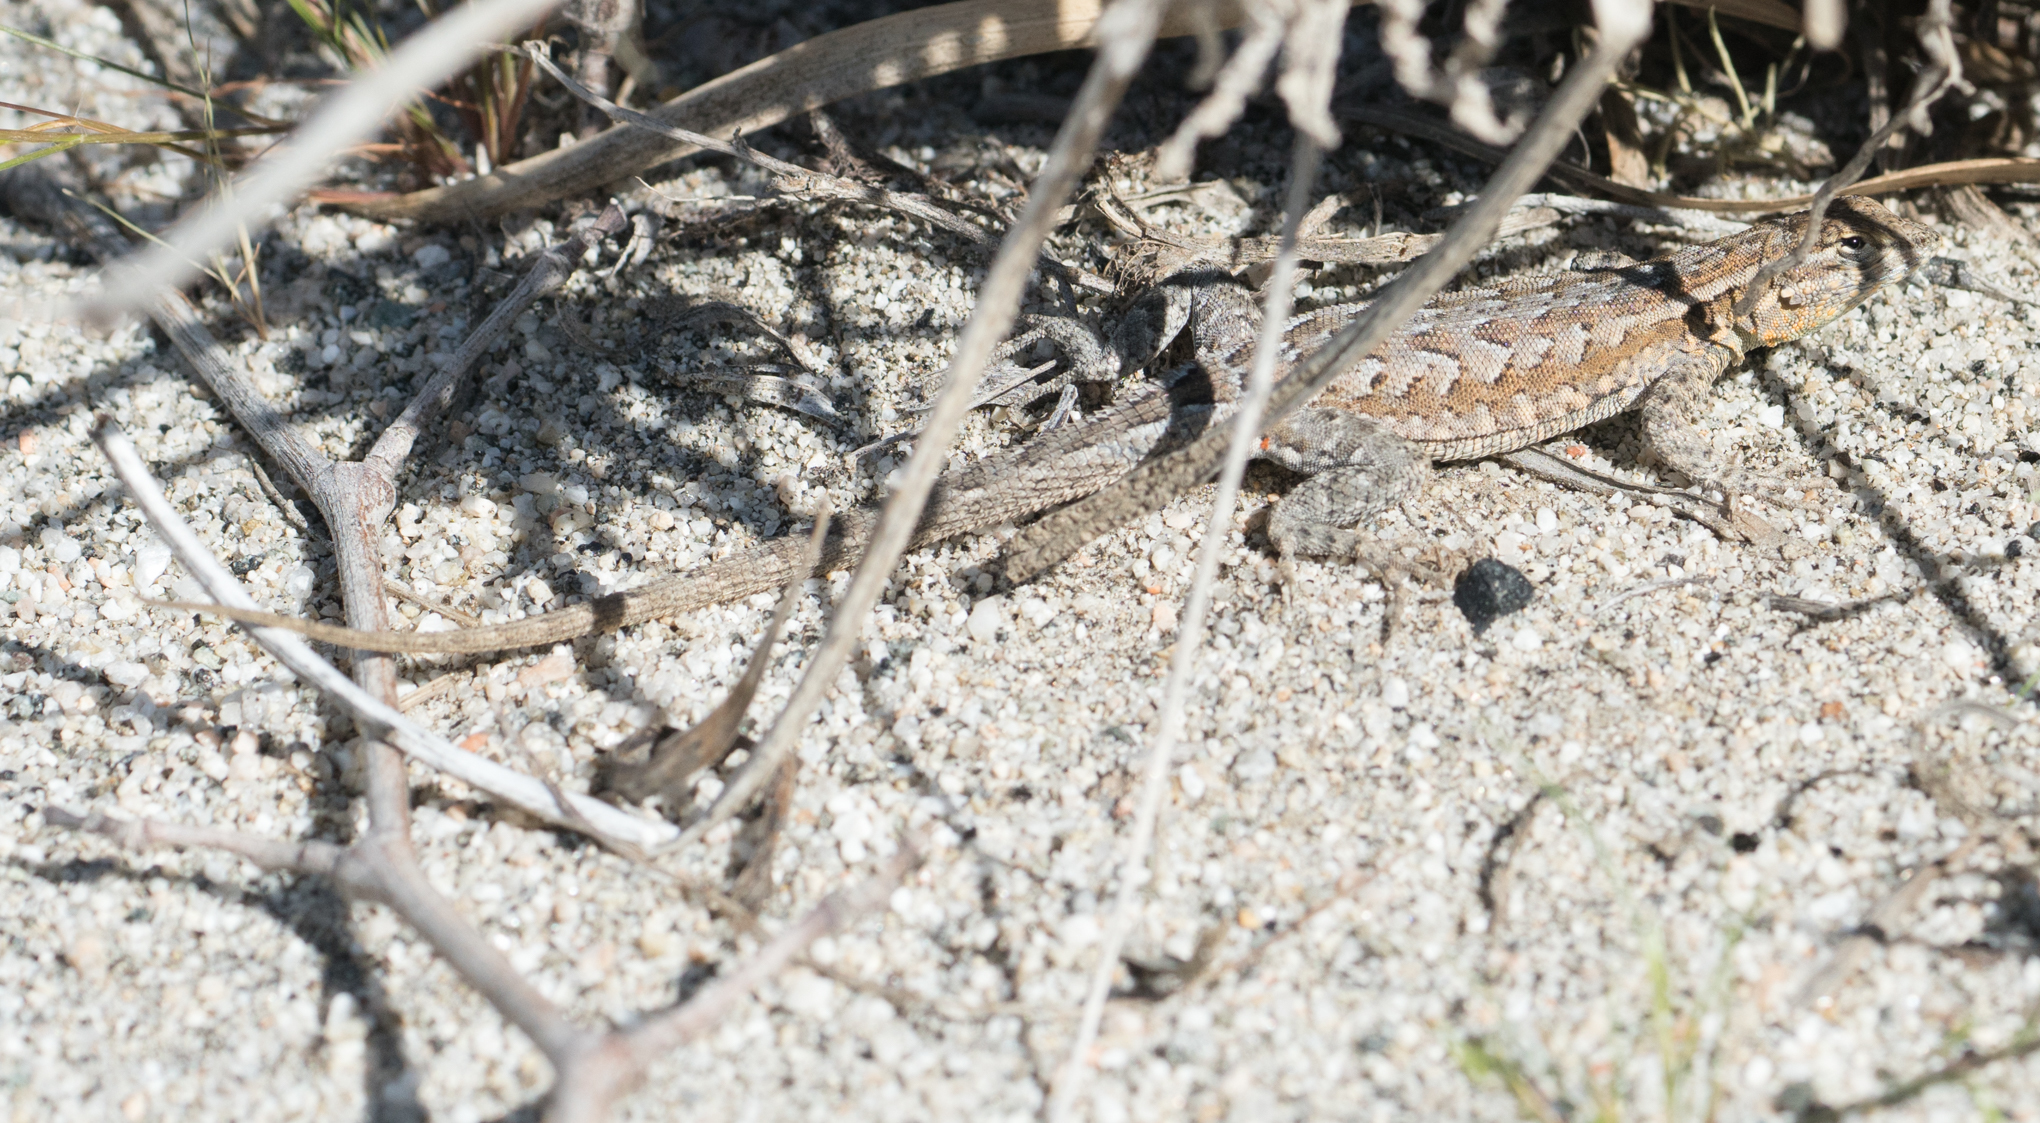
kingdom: Animalia
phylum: Chordata
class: Squamata
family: Phrynosomatidae
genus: Uta
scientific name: Uta stansburiana
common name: Side-blotched lizard
